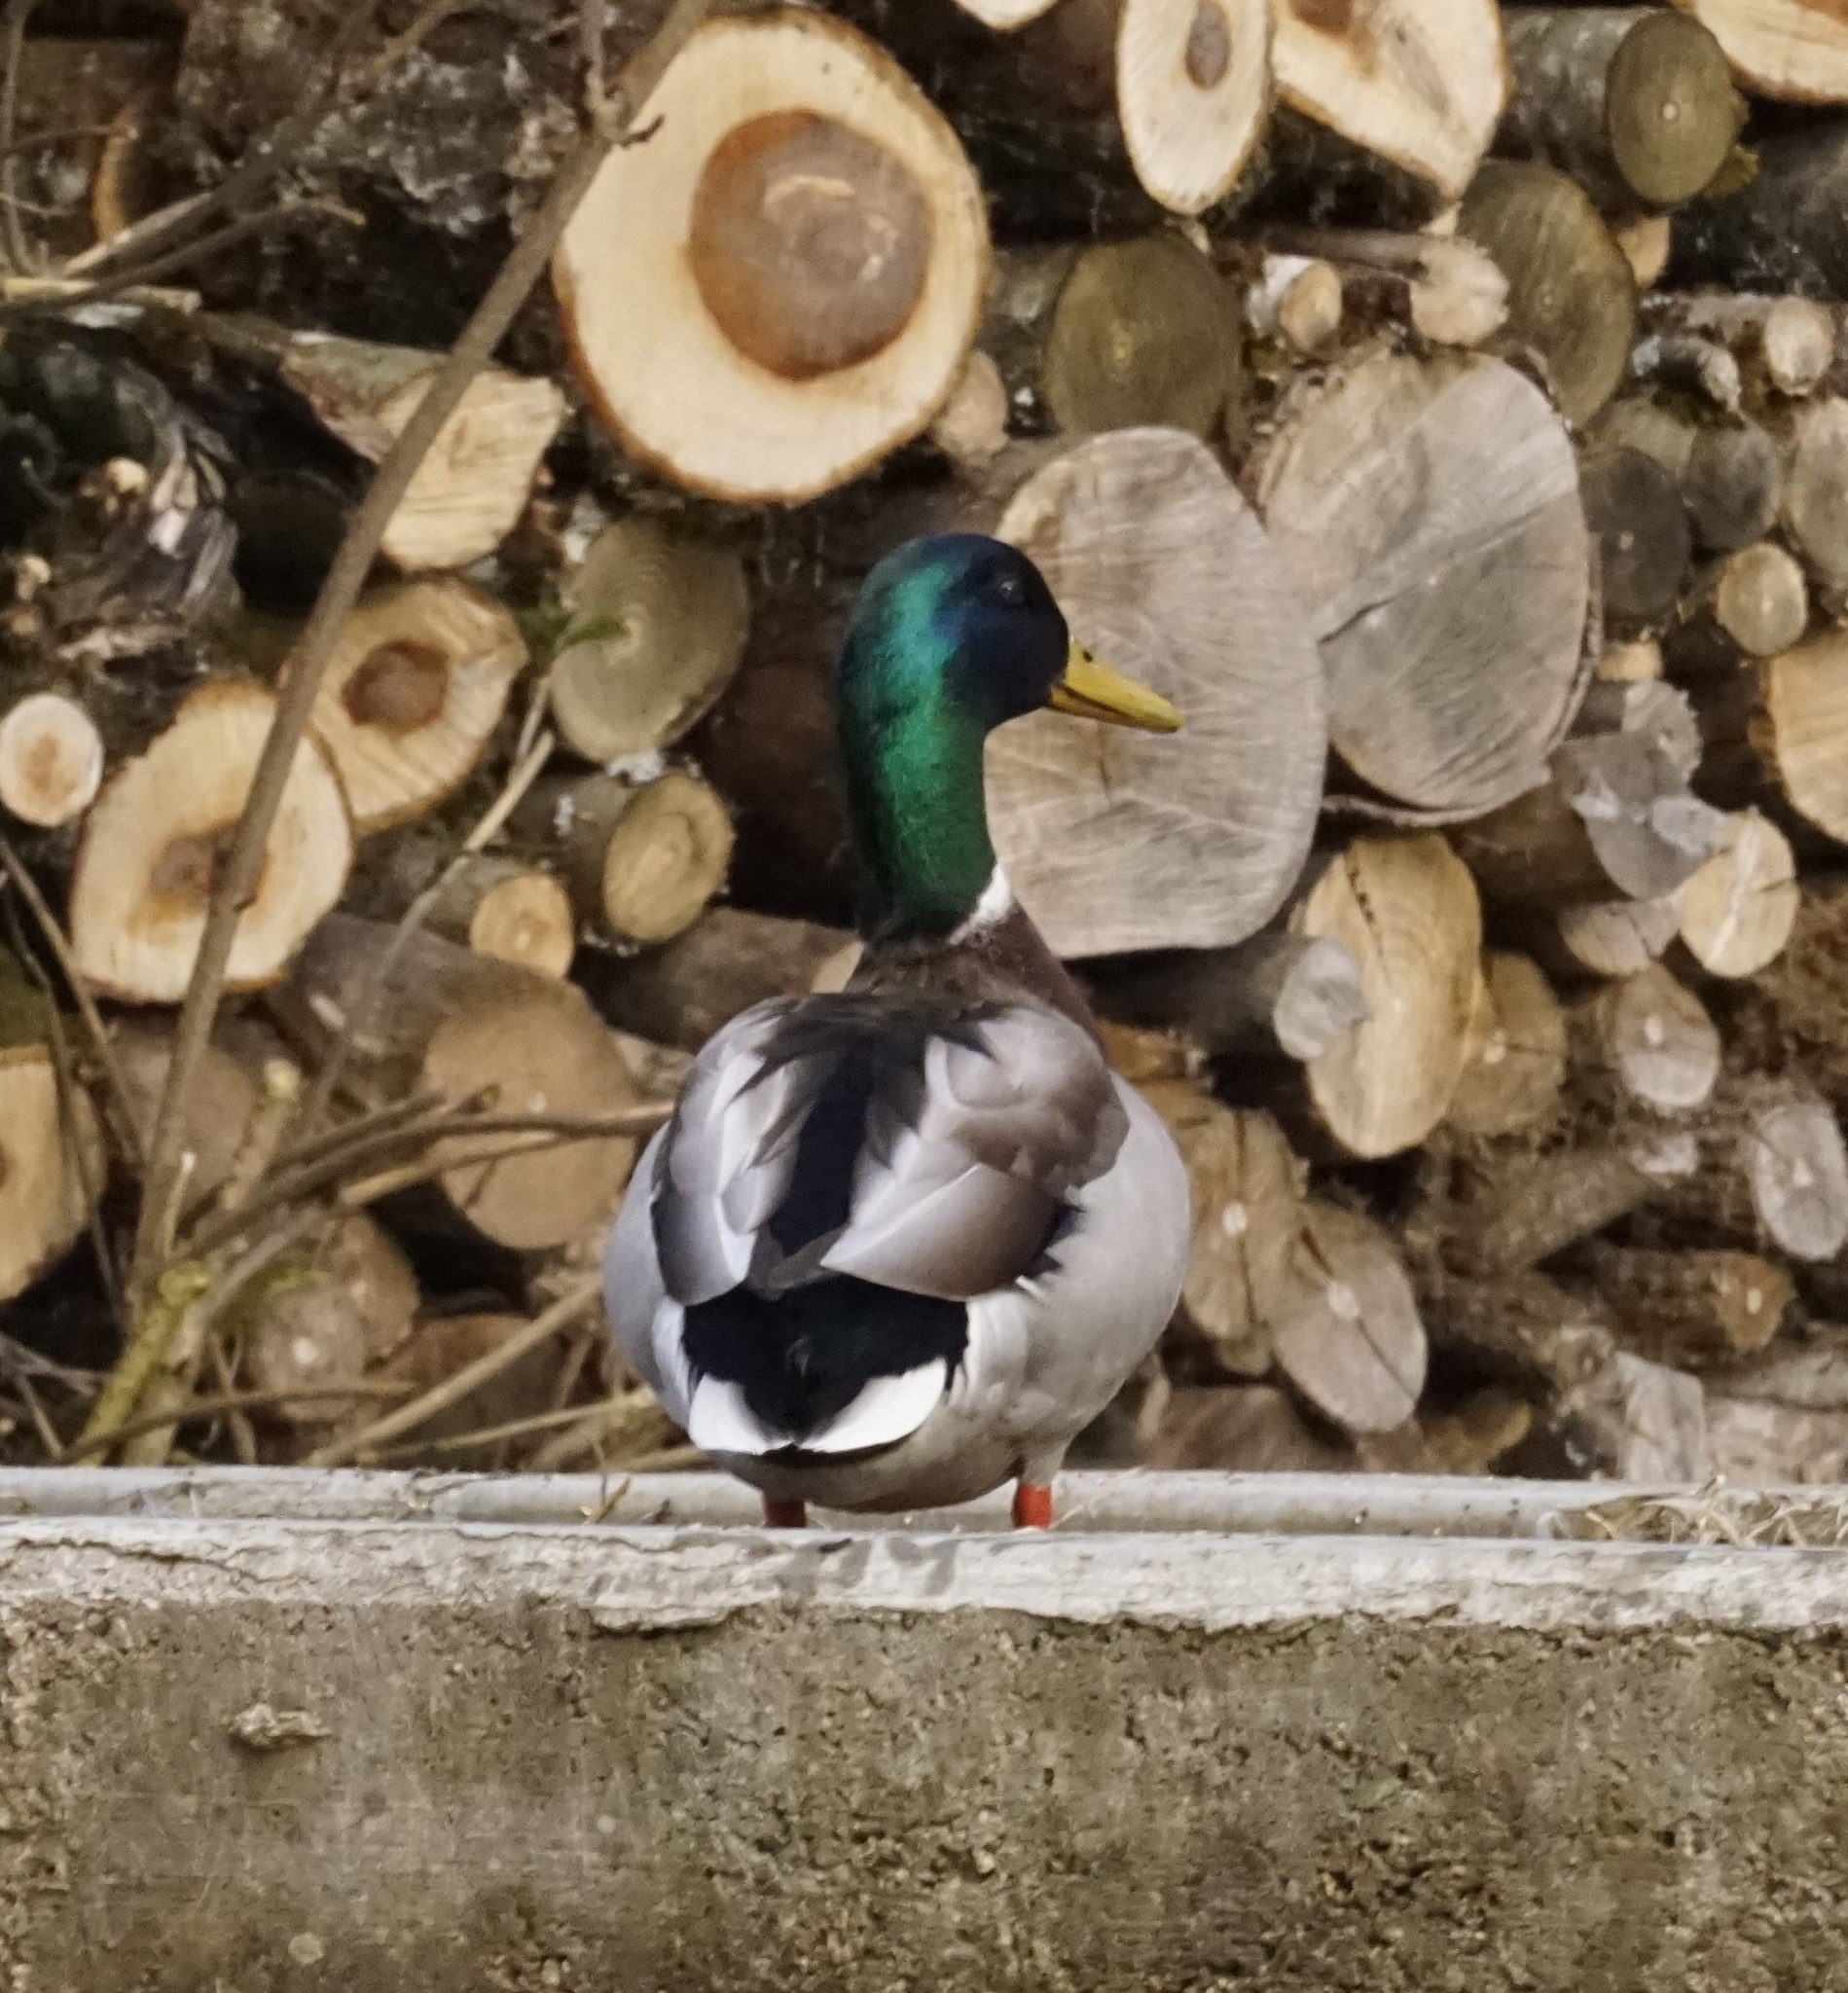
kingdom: Animalia
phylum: Chordata
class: Aves
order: Anseriformes
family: Anatidae
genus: Anas
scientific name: Anas platyrhynchos
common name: Mallard
